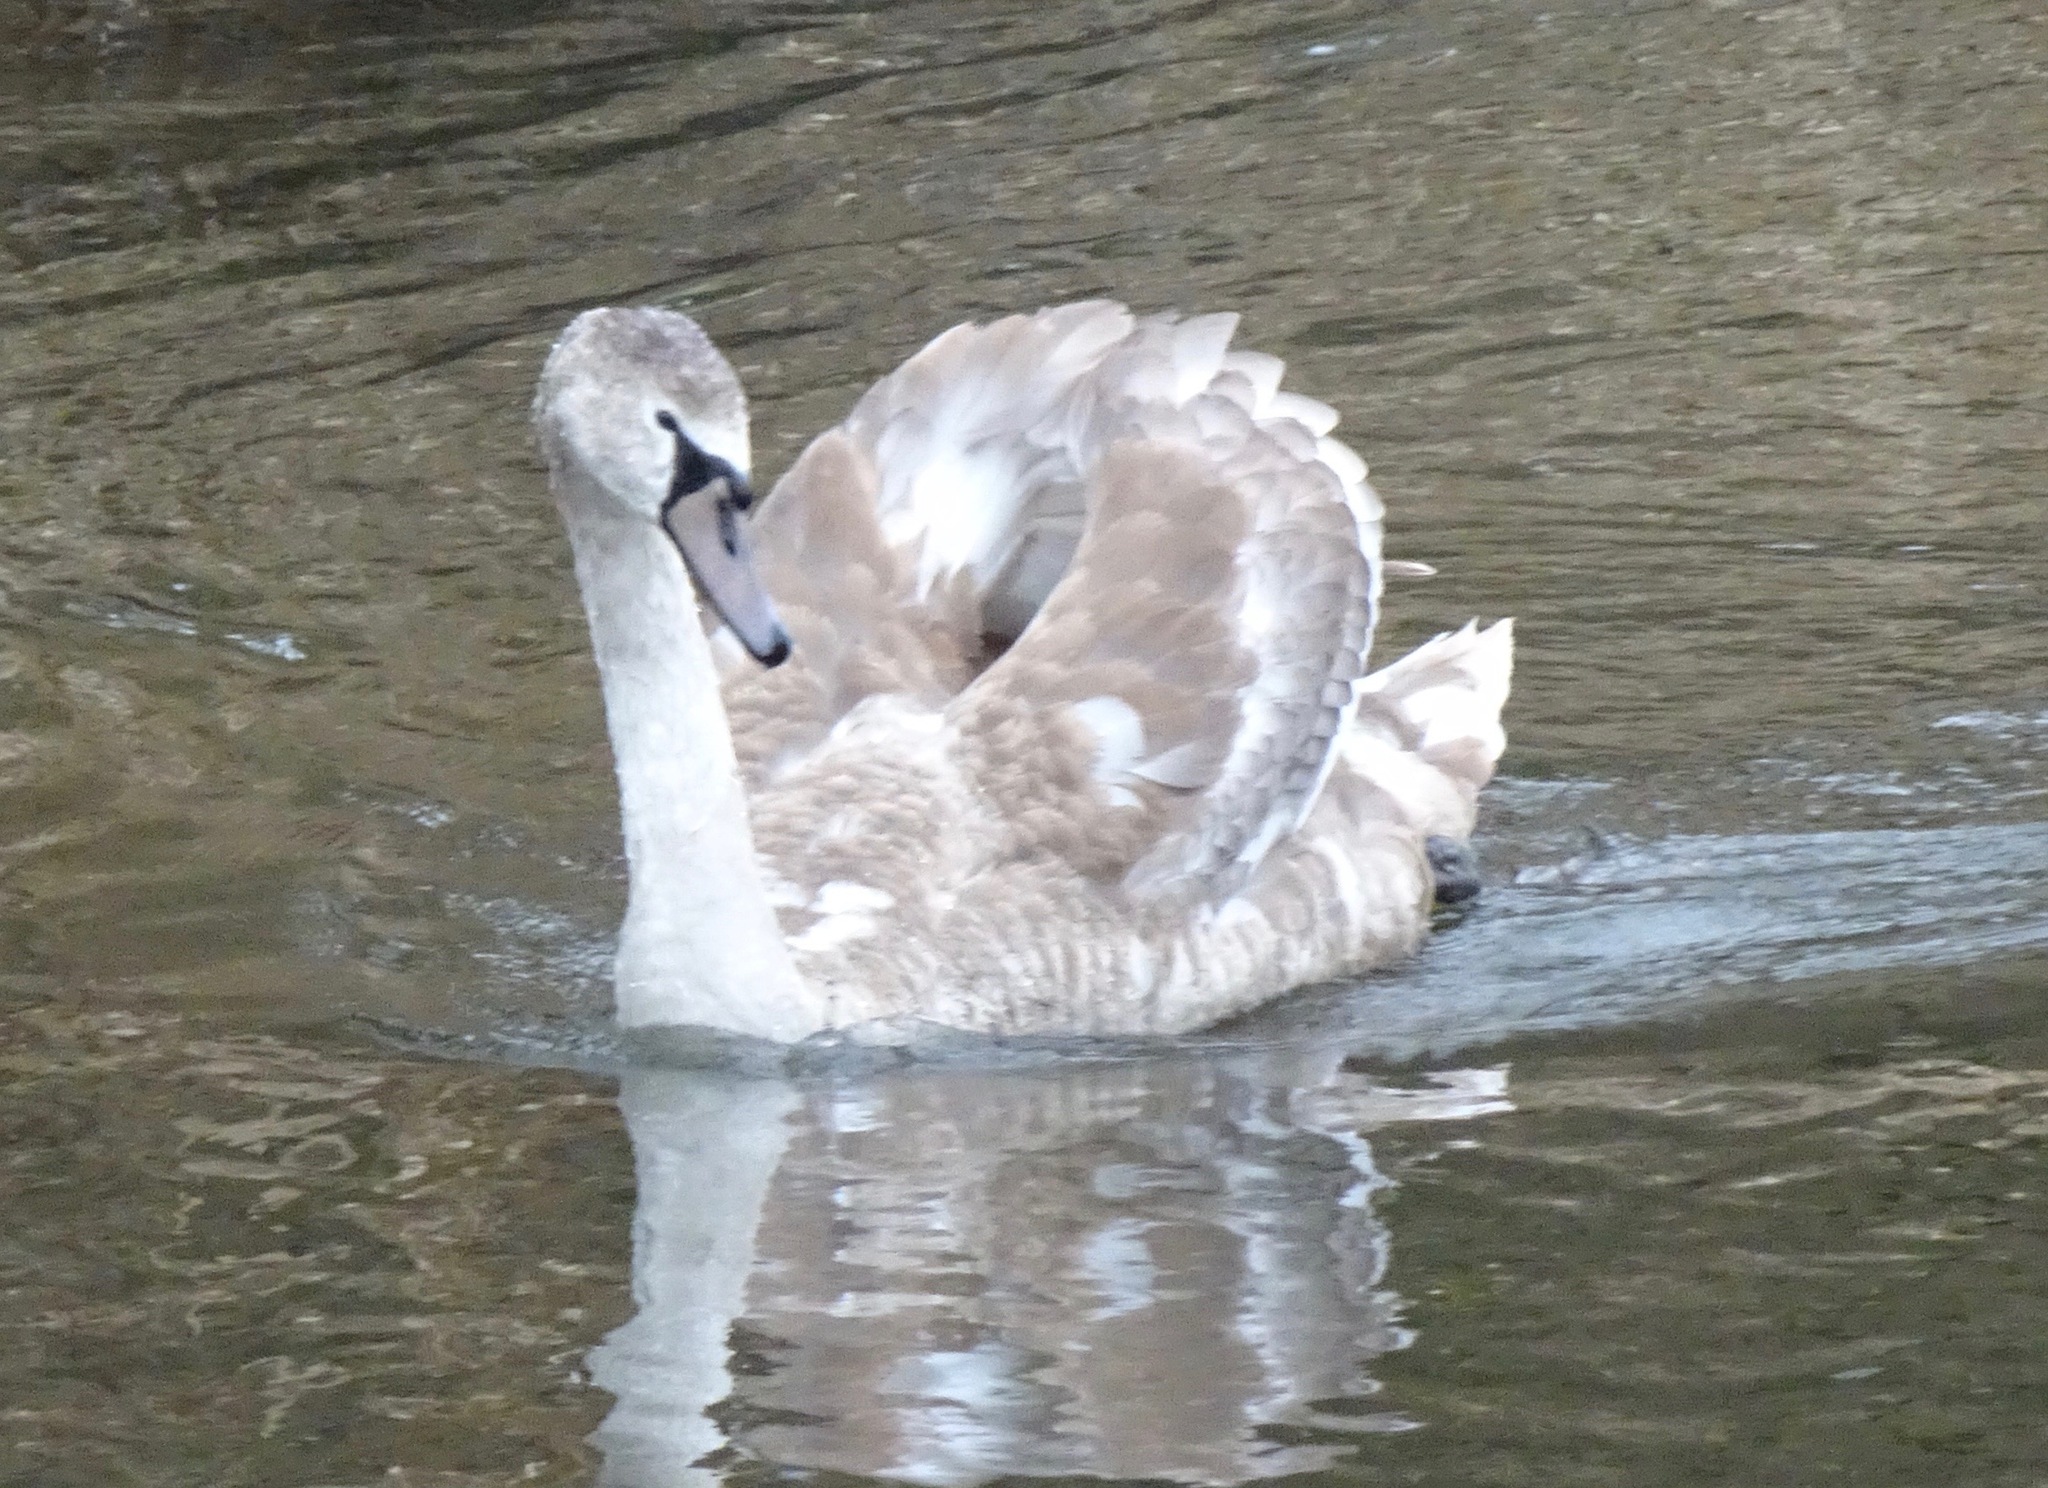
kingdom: Animalia
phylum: Chordata
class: Aves
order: Anseriformes
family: Anatidae
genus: Cygnus
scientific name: Cygnus olor
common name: Mute swan
